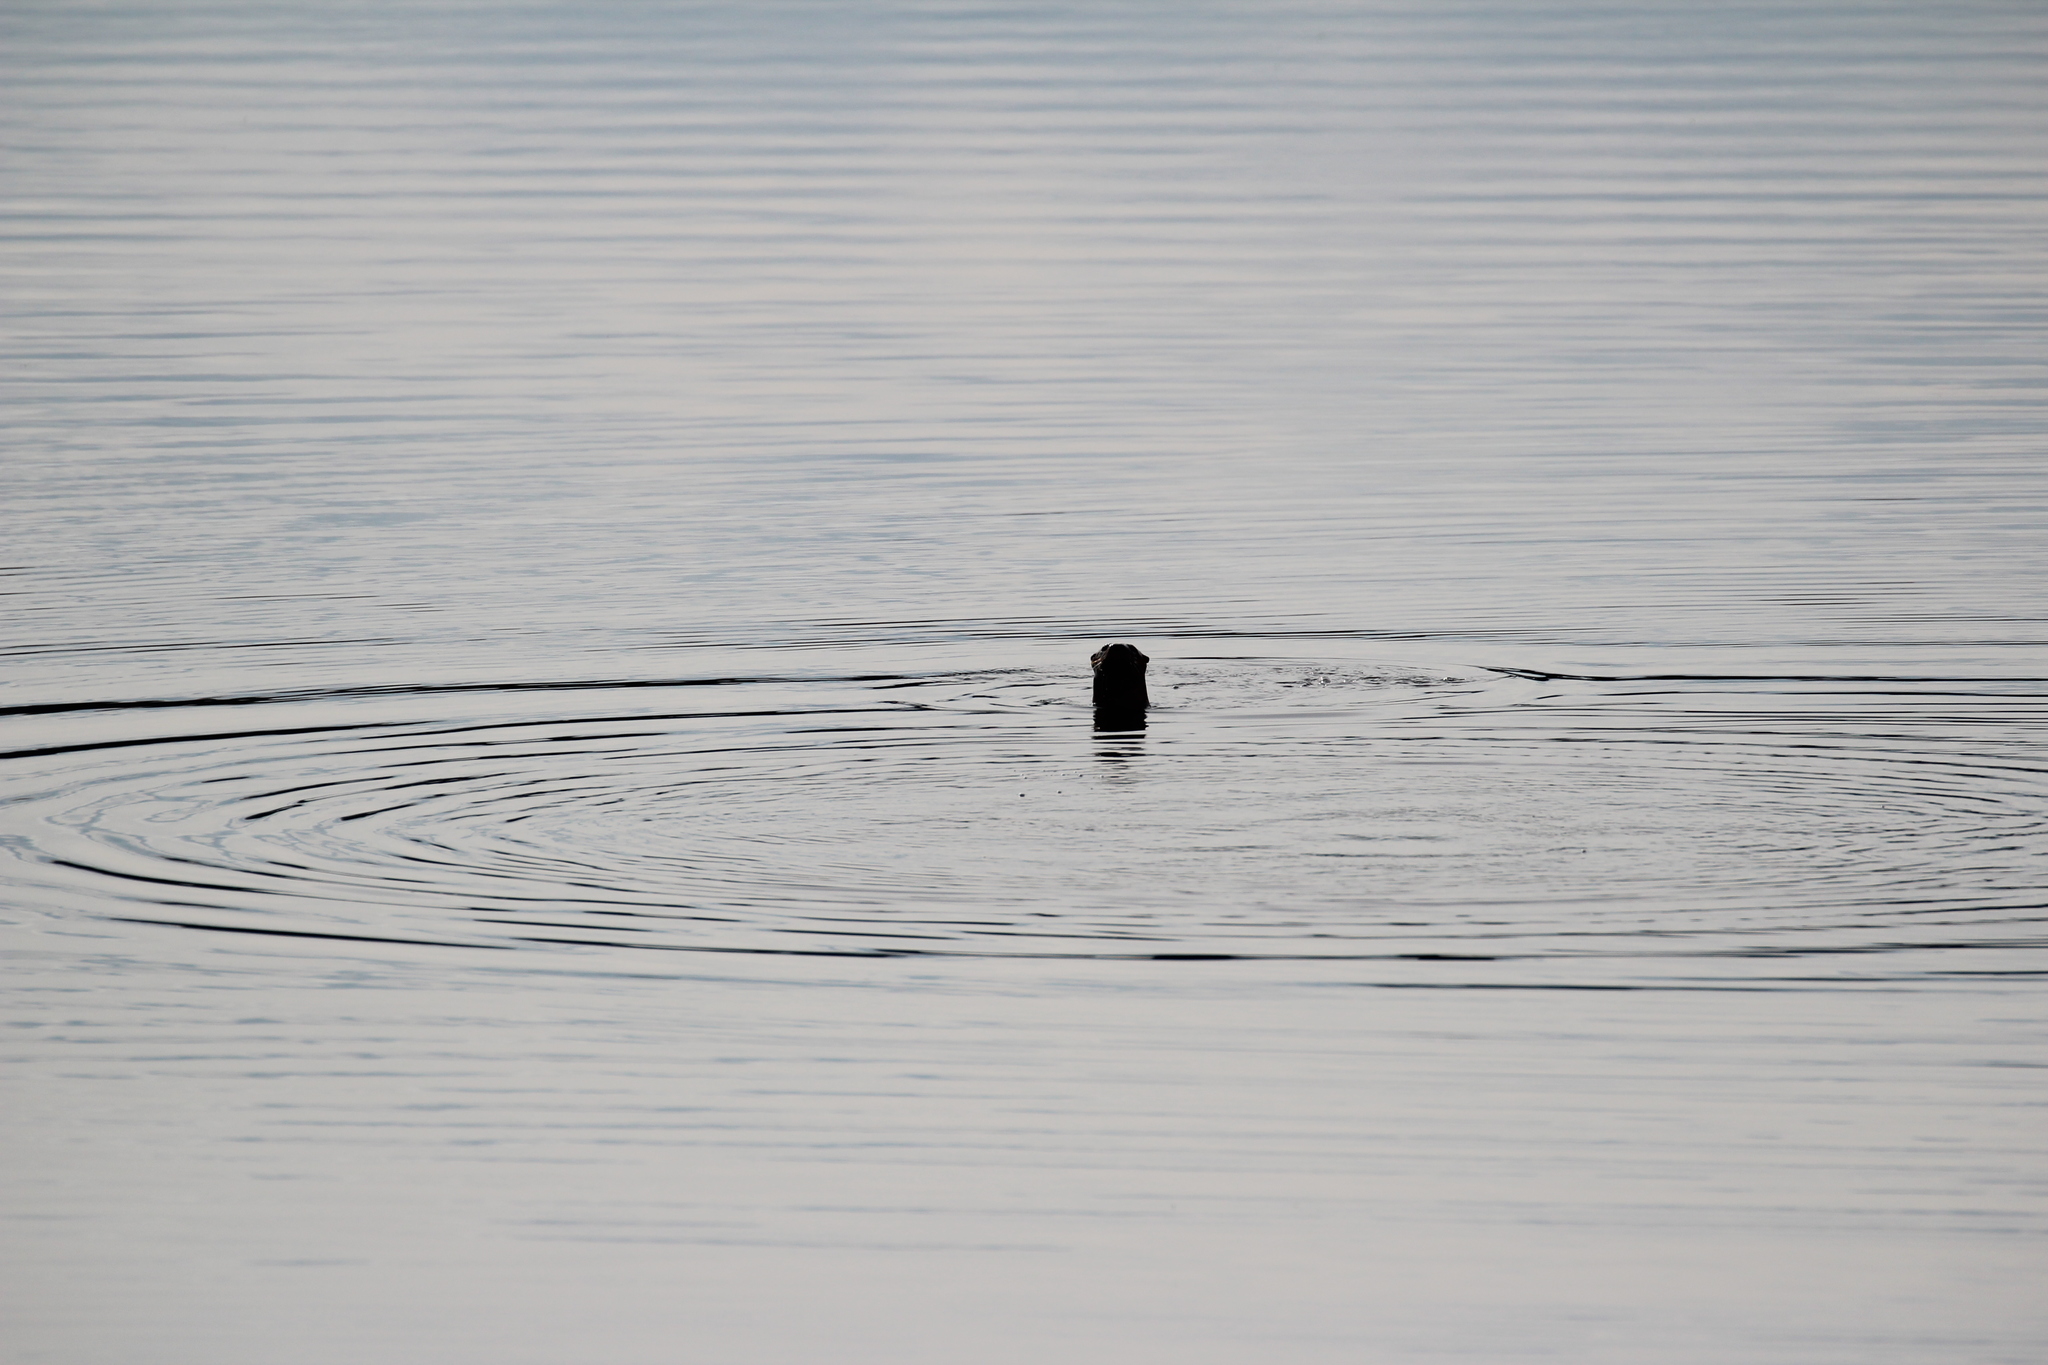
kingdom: Animalia
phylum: Chordata
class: Mammalia
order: Carnivora
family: Mustelidae
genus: Lontra
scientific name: Lontra canadensis
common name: North american river otter
